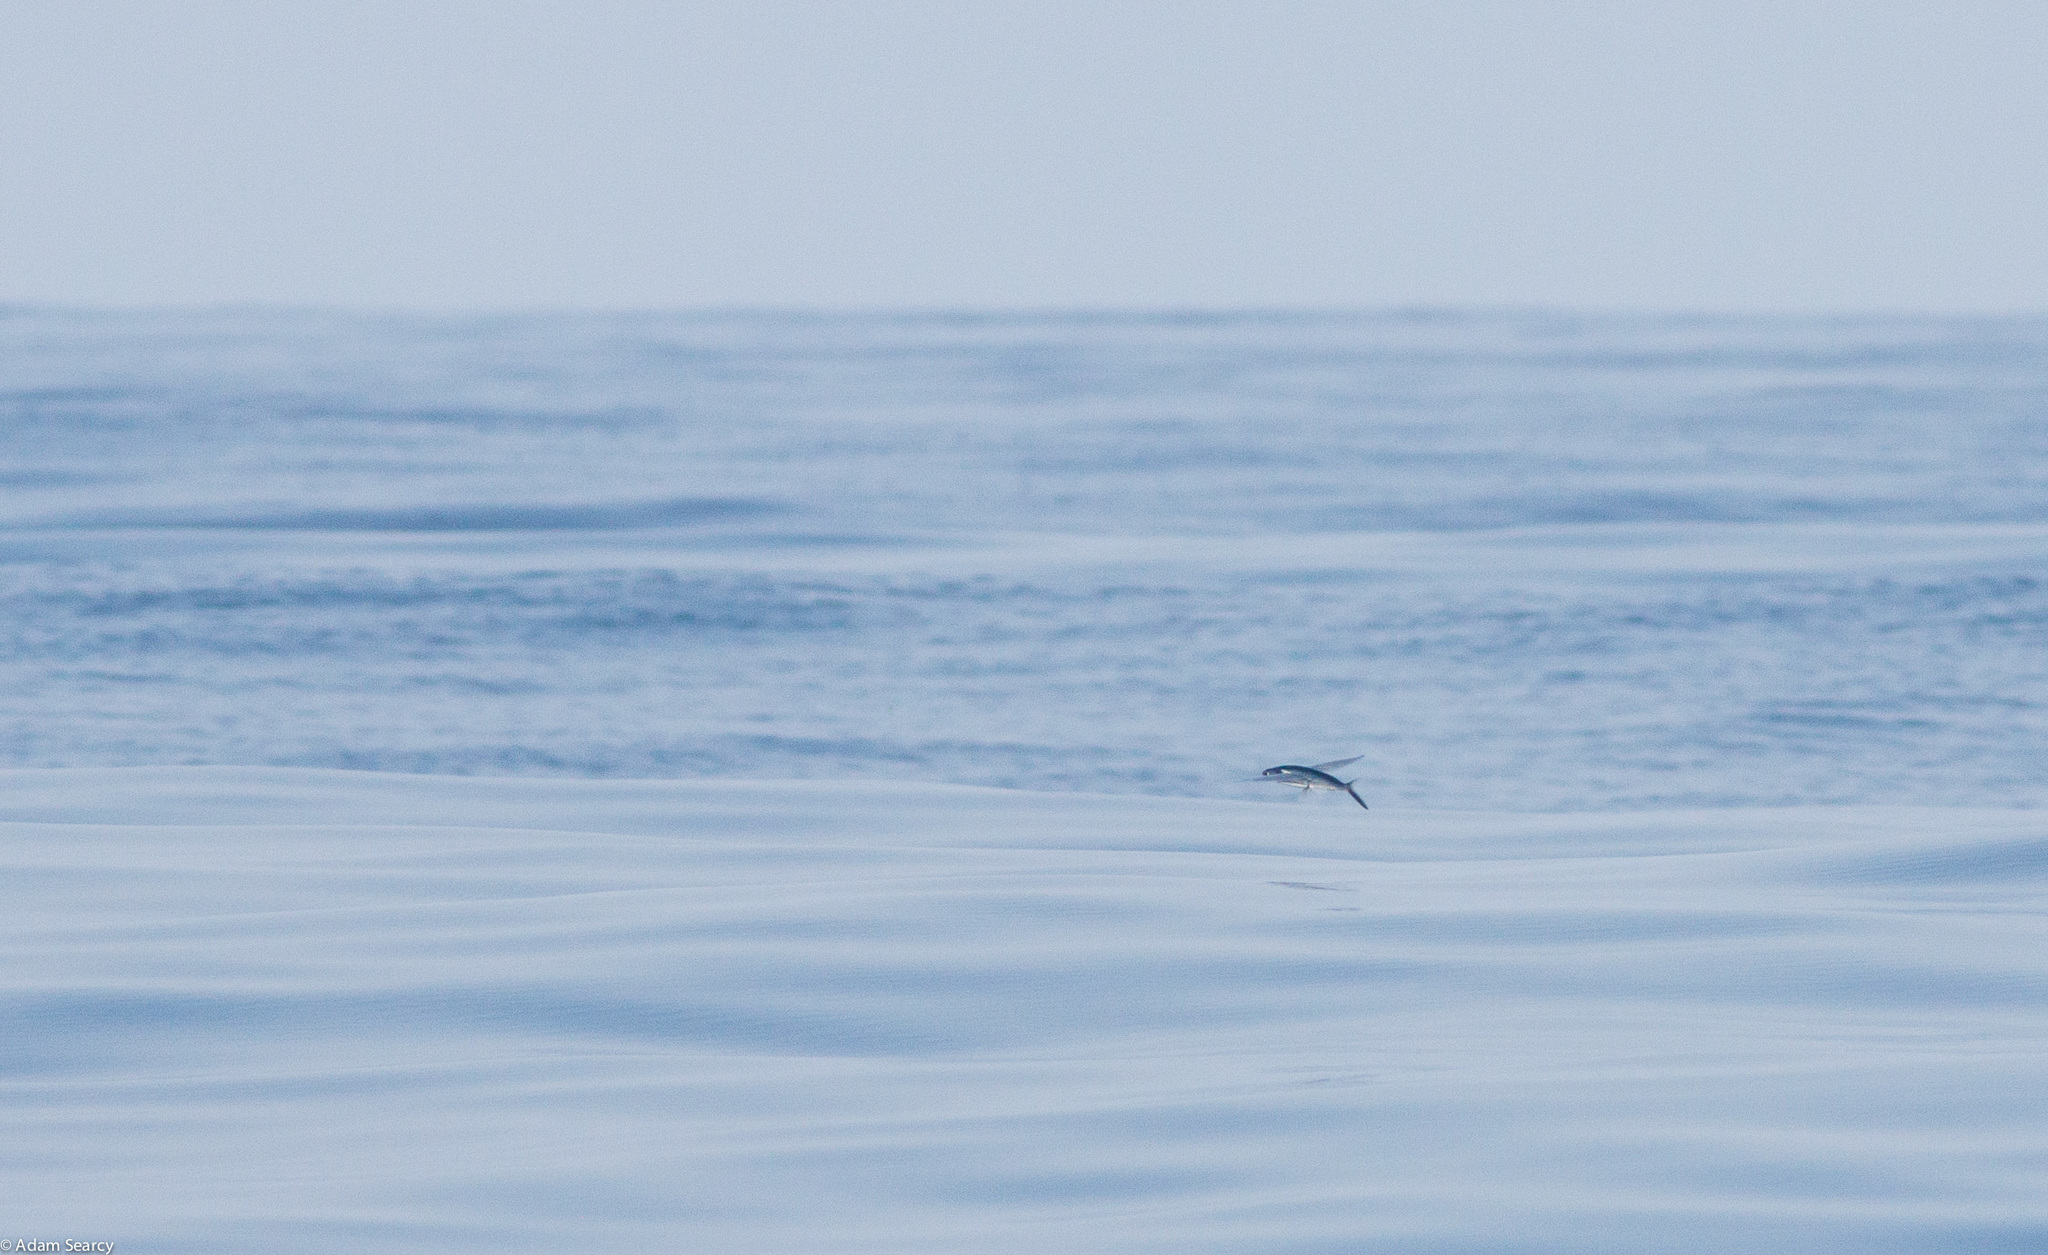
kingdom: Animalia
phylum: Chordata
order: Beloniformes
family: Exocoetidae
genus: Cheilopogon
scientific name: Cheilopogon pinnatibarbatus
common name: Bennett's flyingfish
